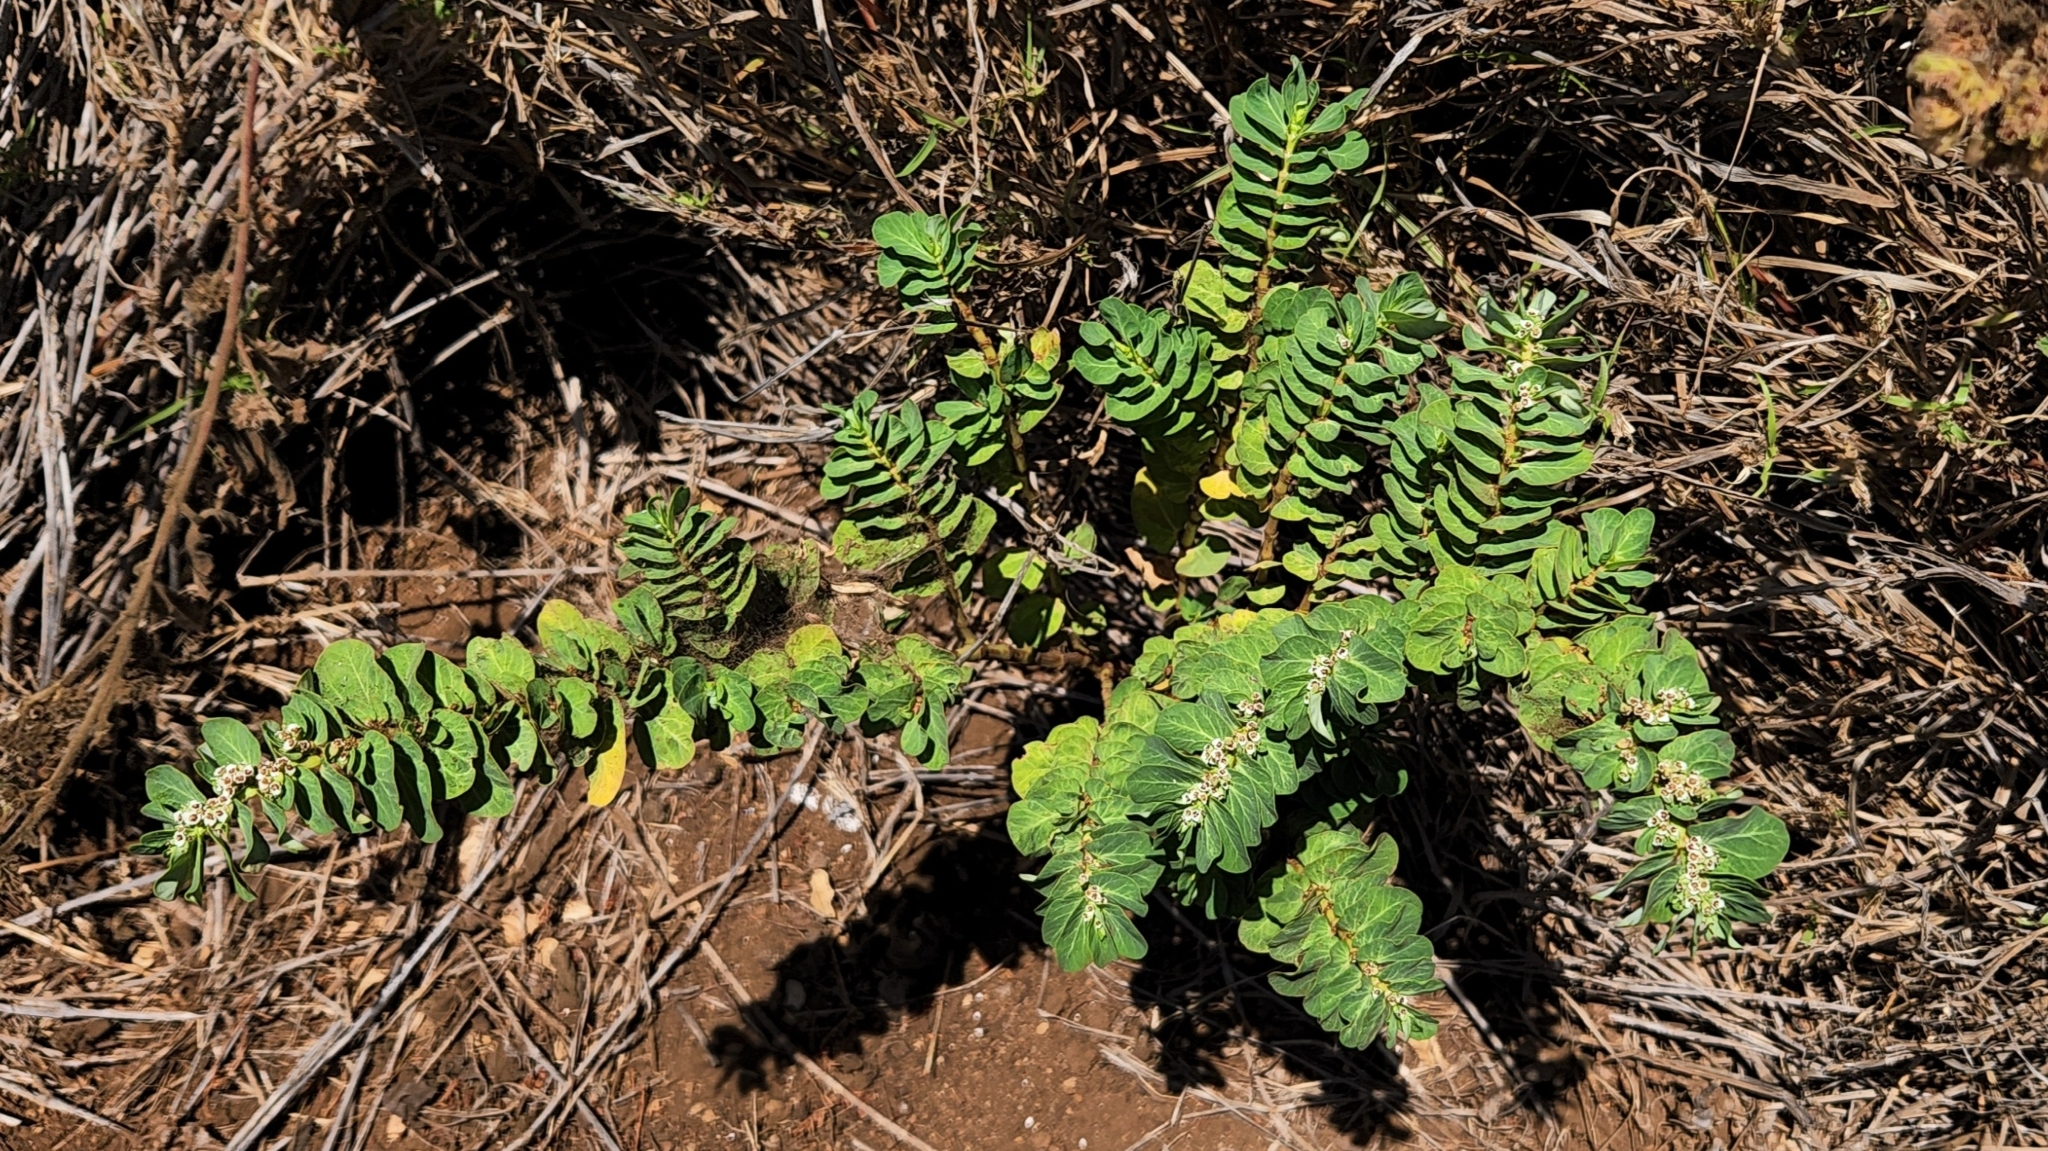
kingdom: Plantae
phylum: Tracheophyta
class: Magnoliopsida
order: Malpighiales
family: Euphorbiaceae
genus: Euphorbia
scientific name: Euphorbia anthonyi
